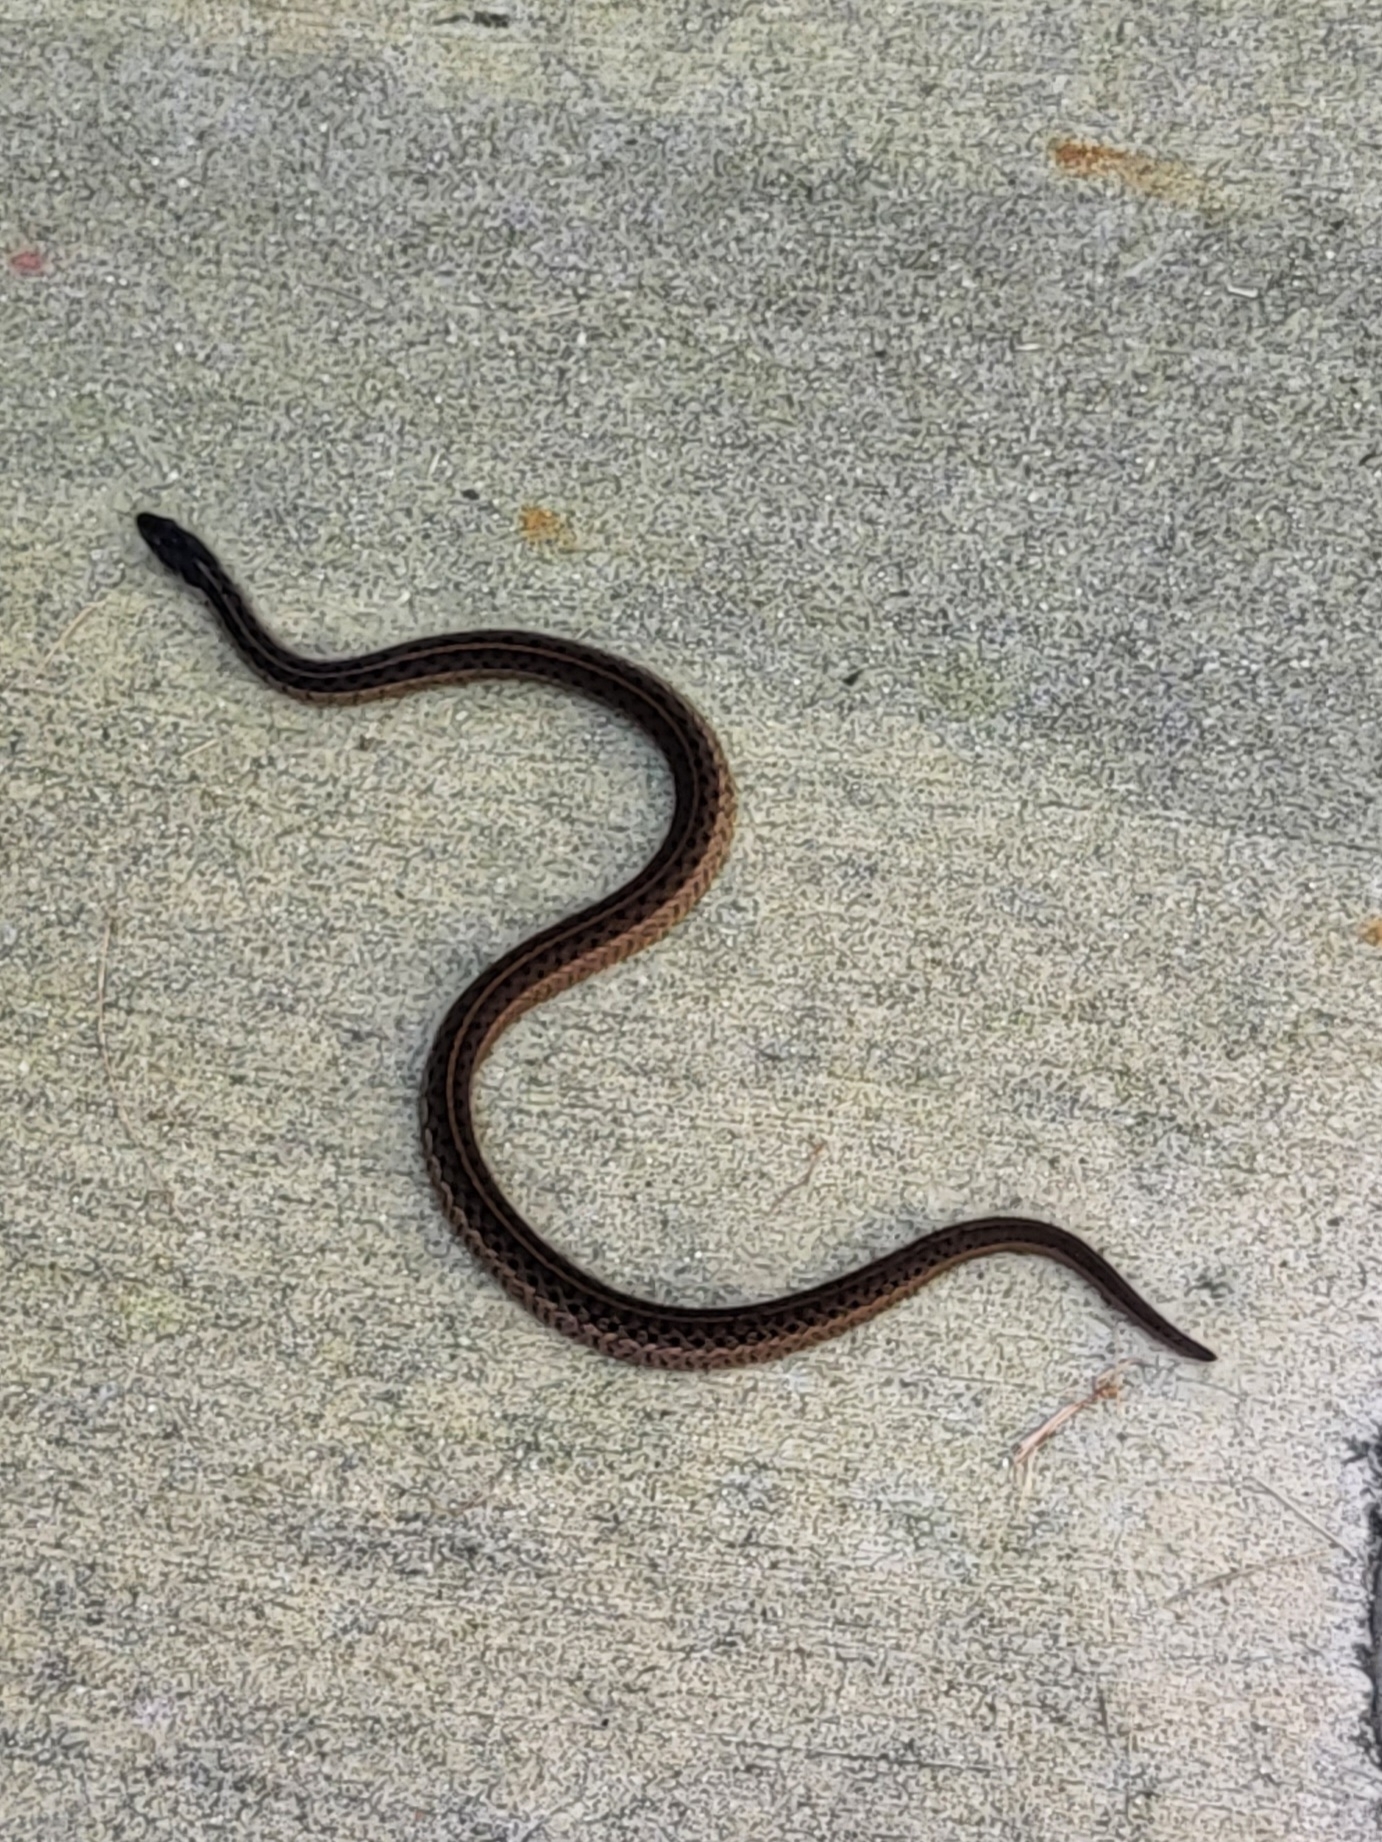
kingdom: Animalia
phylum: Chordata
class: Squamata
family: Colubridae
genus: Thamnophis
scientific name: Thamnophis sirtalis
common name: Common garter snake
